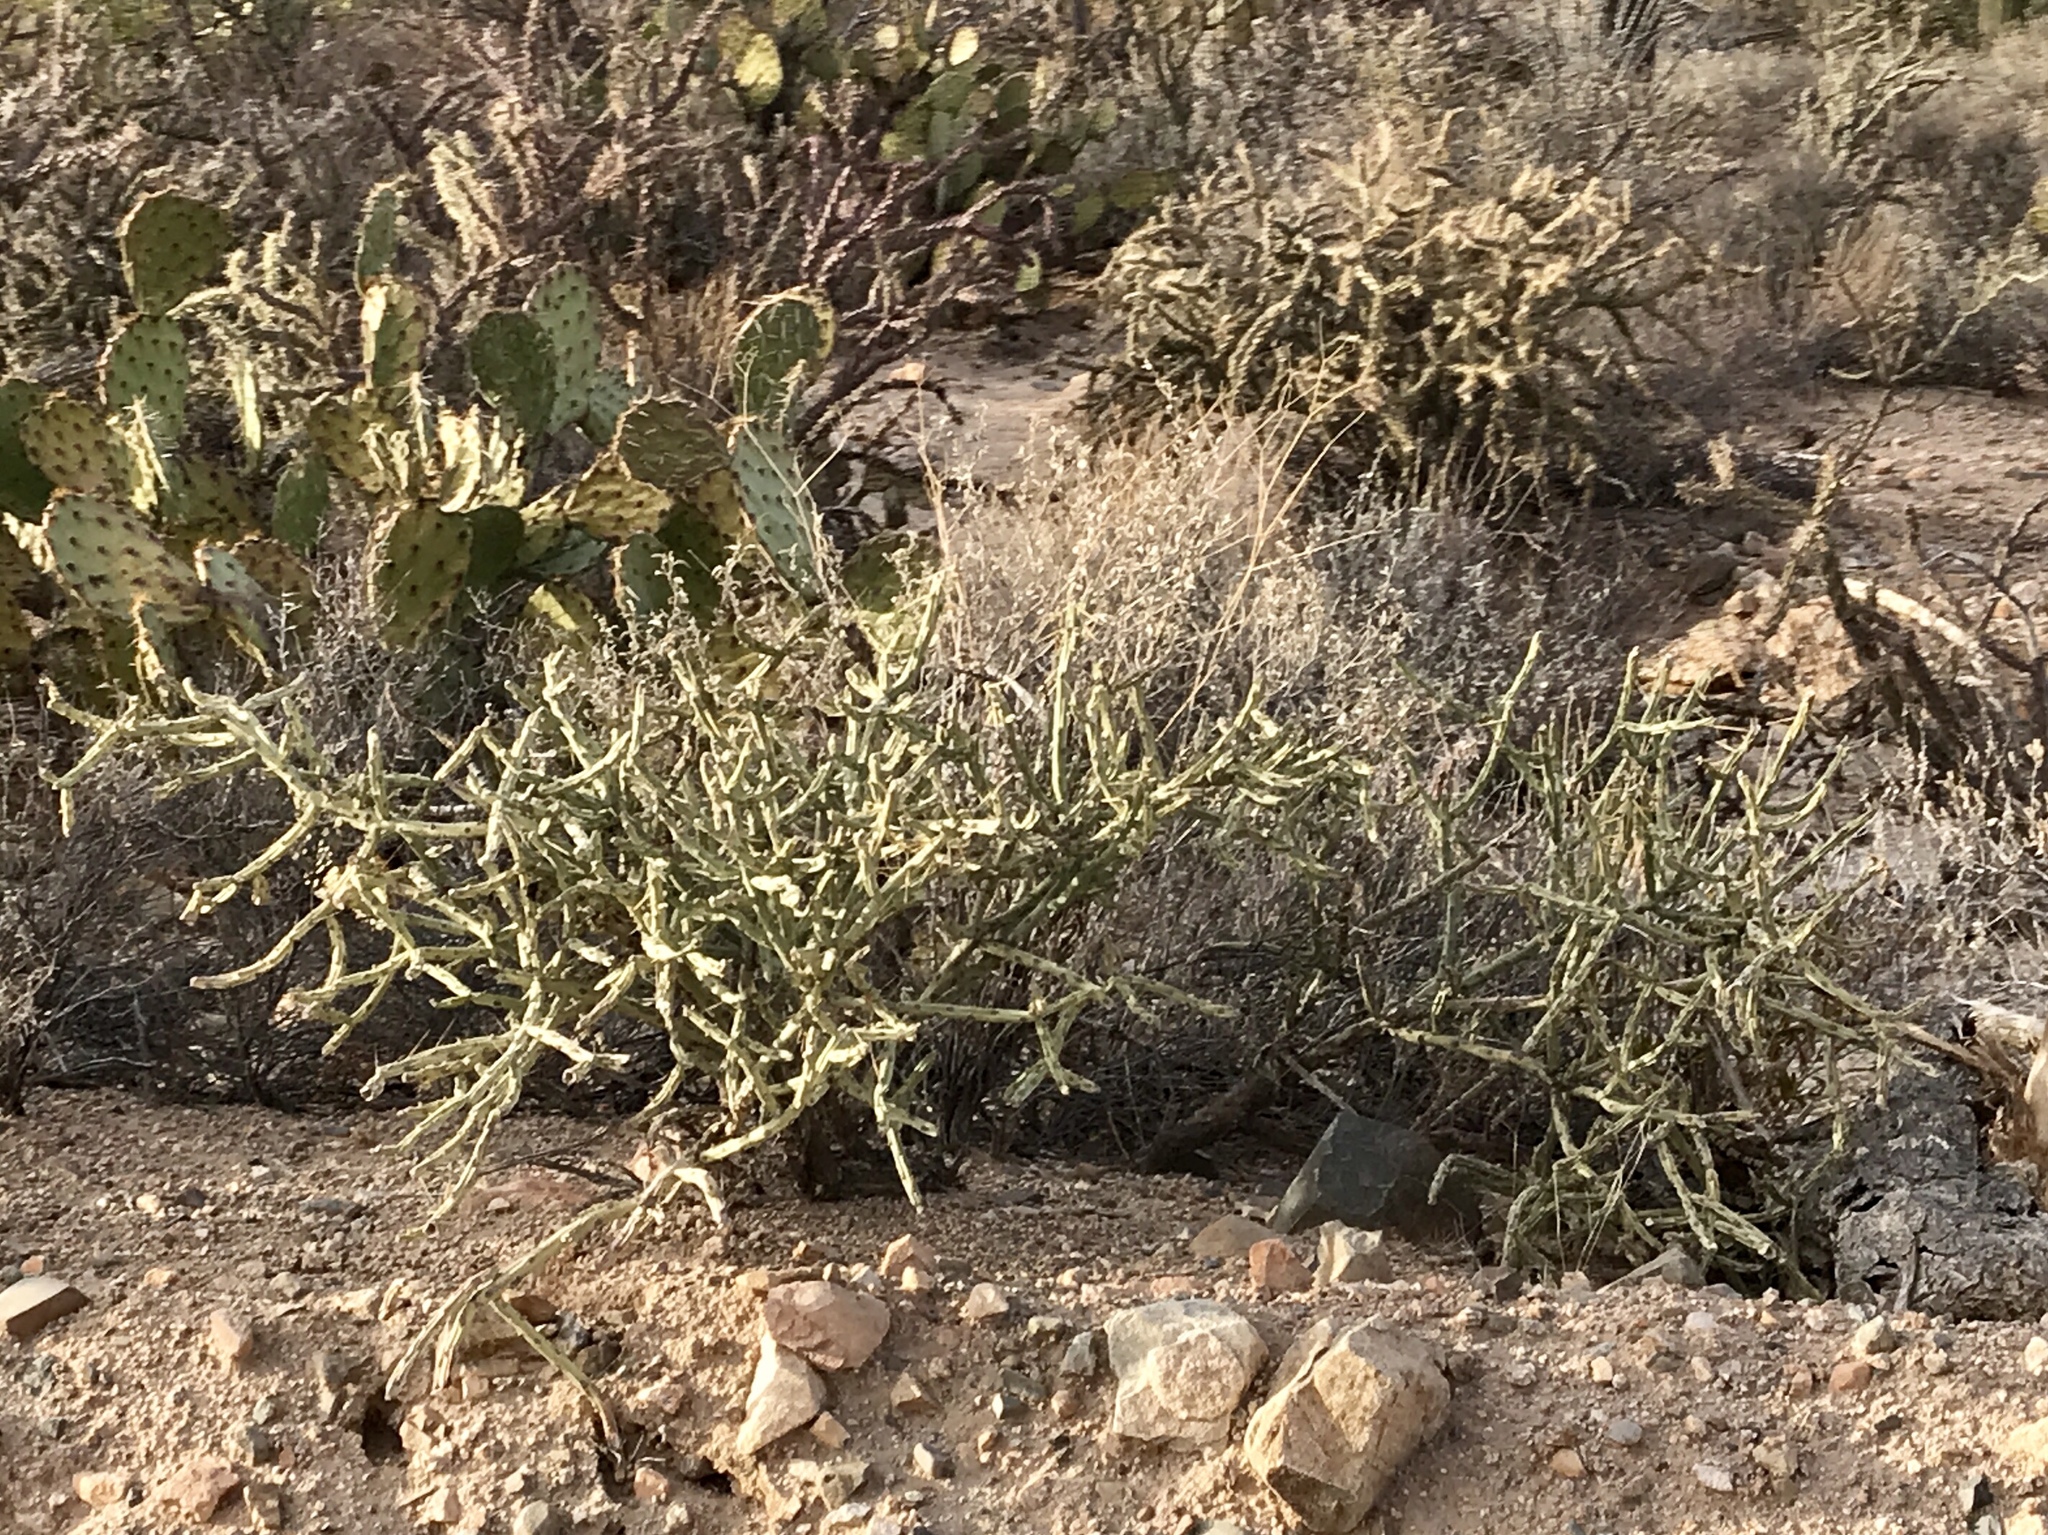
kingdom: Plantae
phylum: Tracheophyta
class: Magnoliopsida
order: Caryophyllales
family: Cactaceae
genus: Cylindropuntia
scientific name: Cylindropuntia arbuscula
